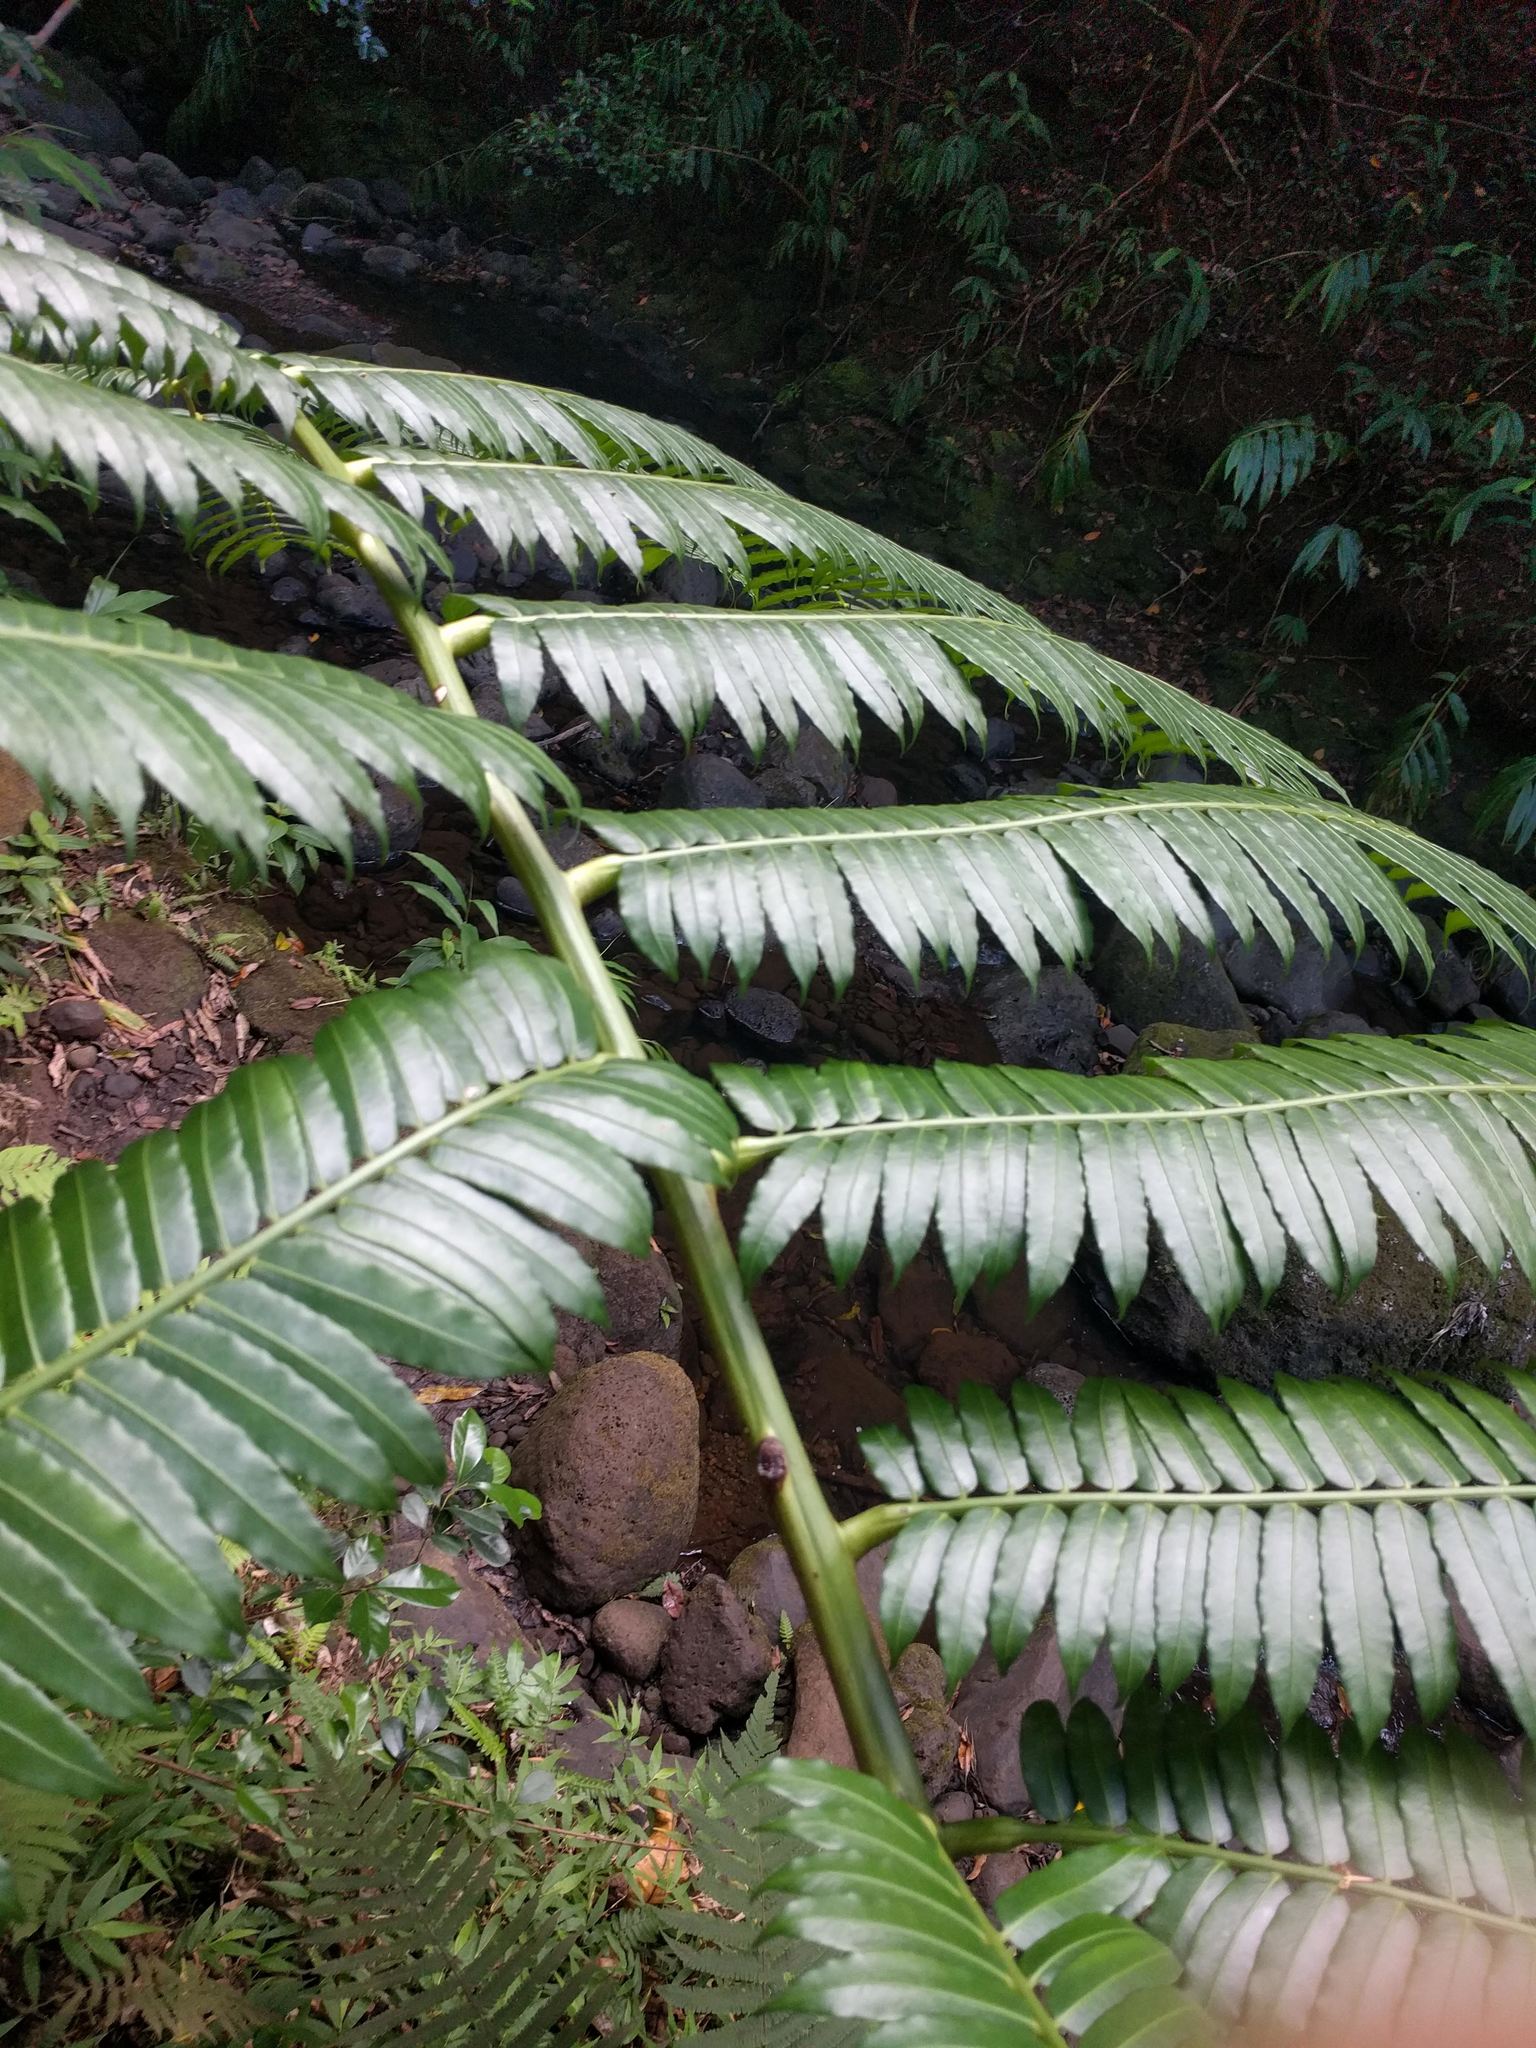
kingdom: Plantae
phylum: Tracheophyta
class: Polypodiopsida
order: Marattiales
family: Marattiaceae
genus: Angiopteris
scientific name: Angiopteris evecta
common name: Mule's-foot fern
